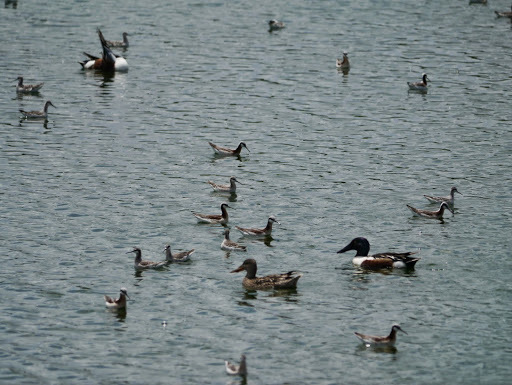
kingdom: Animalia
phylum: Chordata
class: Aves
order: Anseriformes
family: Anatidae
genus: Spatula
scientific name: Spatula clypeata
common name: Northern shoveler
